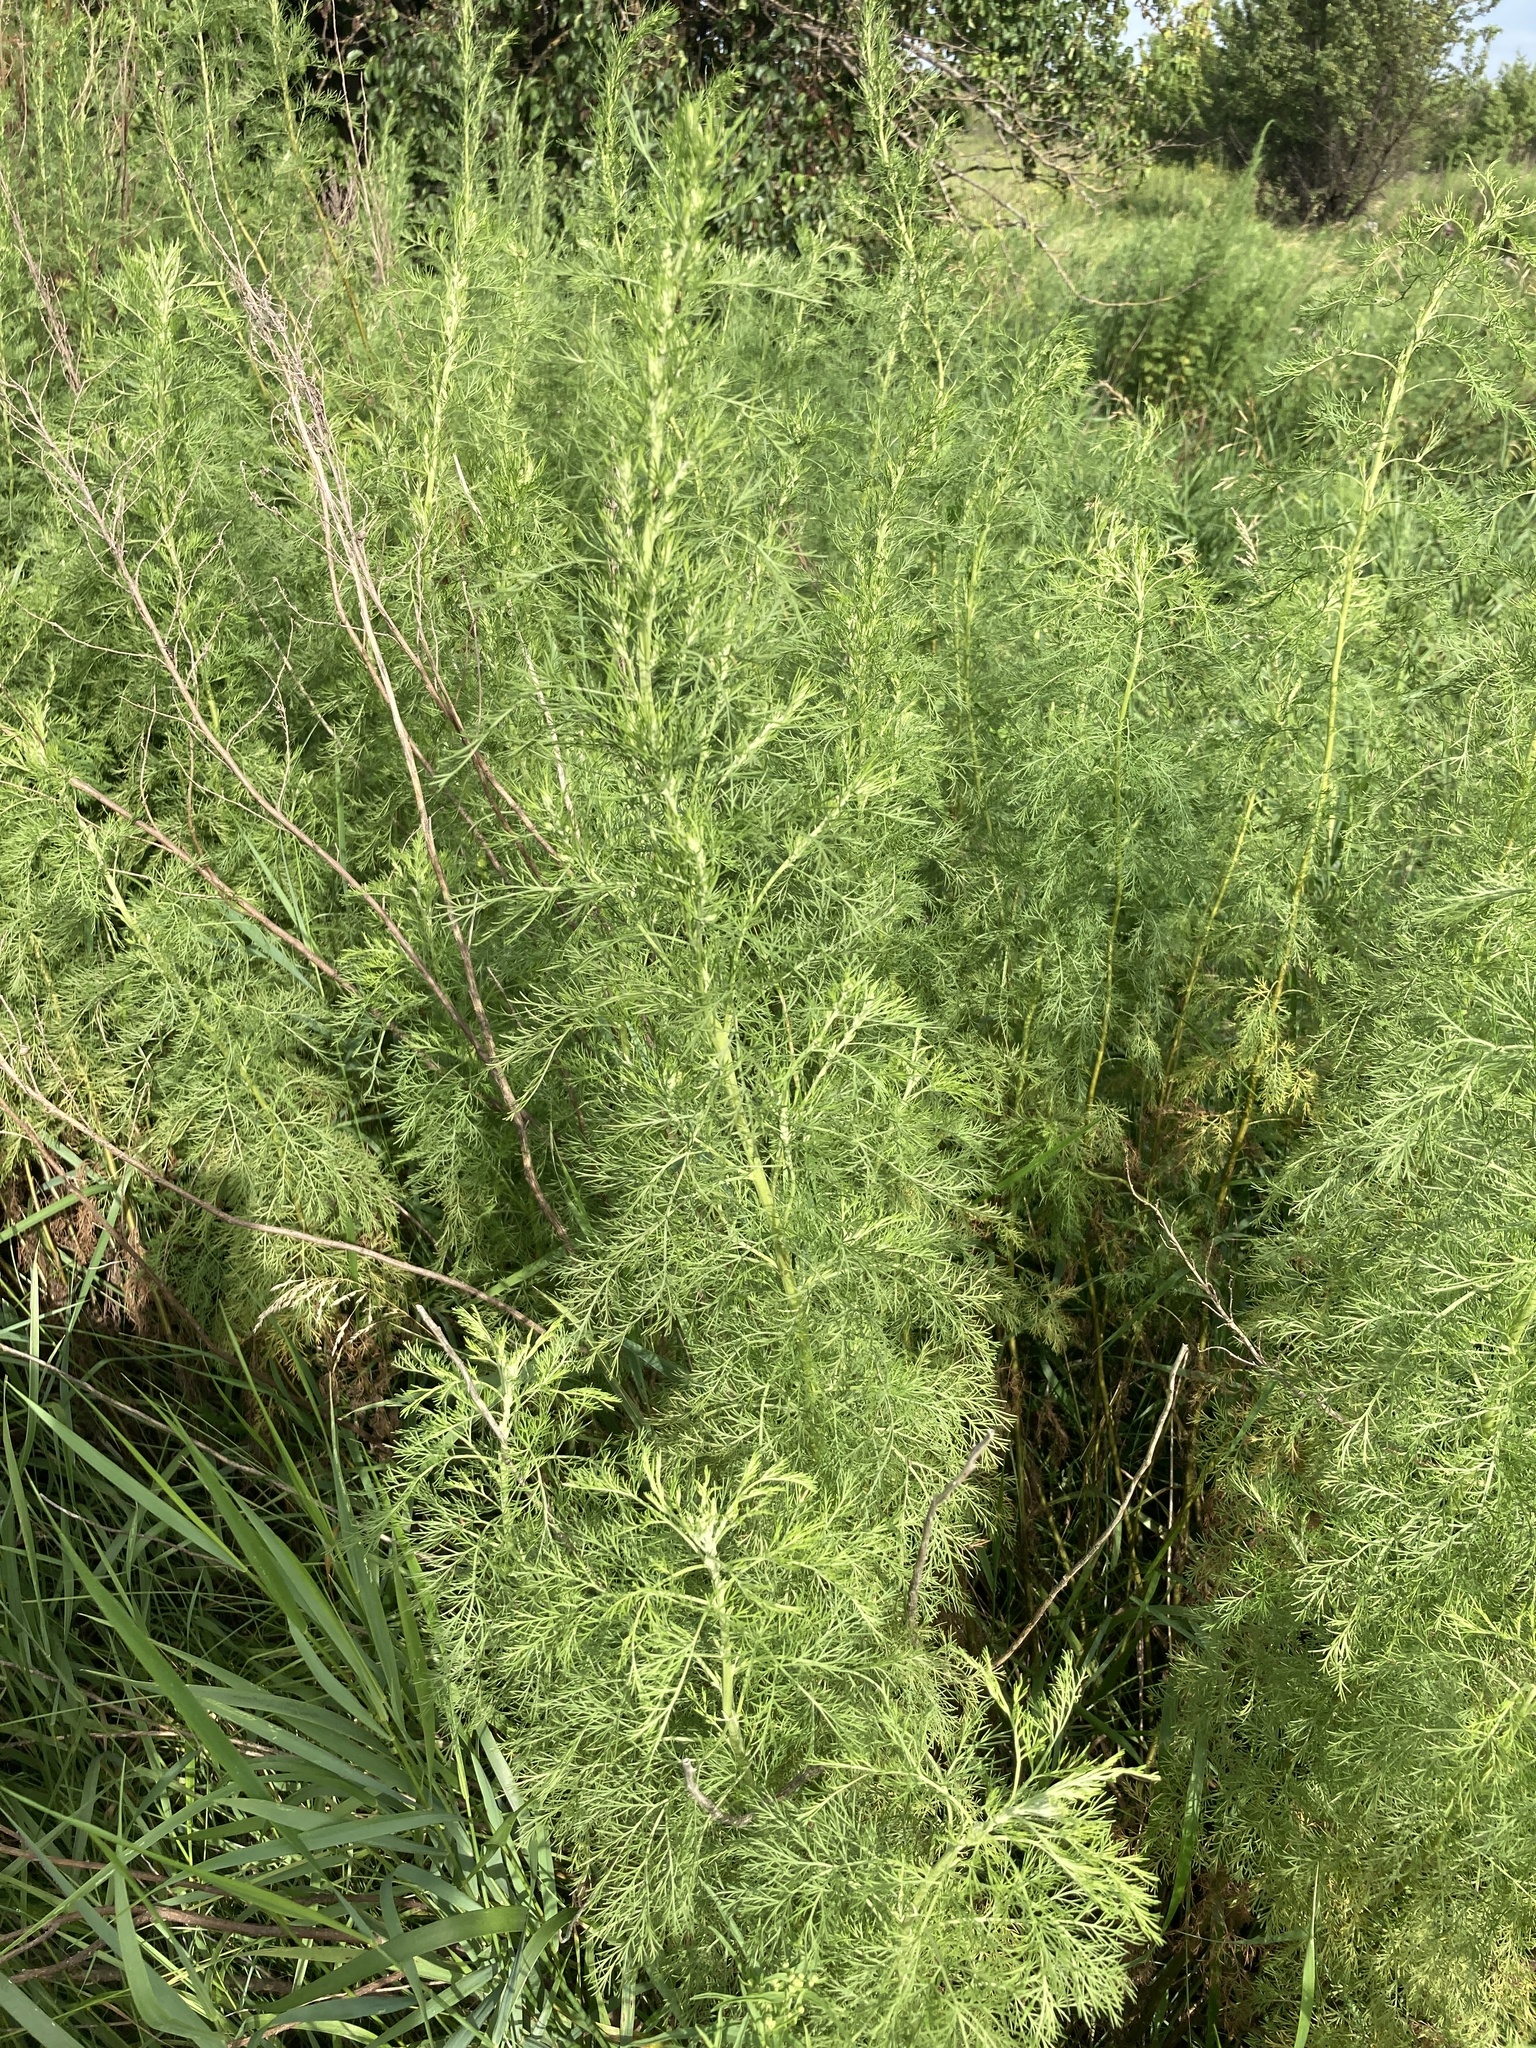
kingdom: Plantae
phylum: Tracheophyta
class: Magnoliopsida
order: Asterales
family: Asteraceae
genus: Artemisia
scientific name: Artemisia abrotanum
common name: Southernwood
